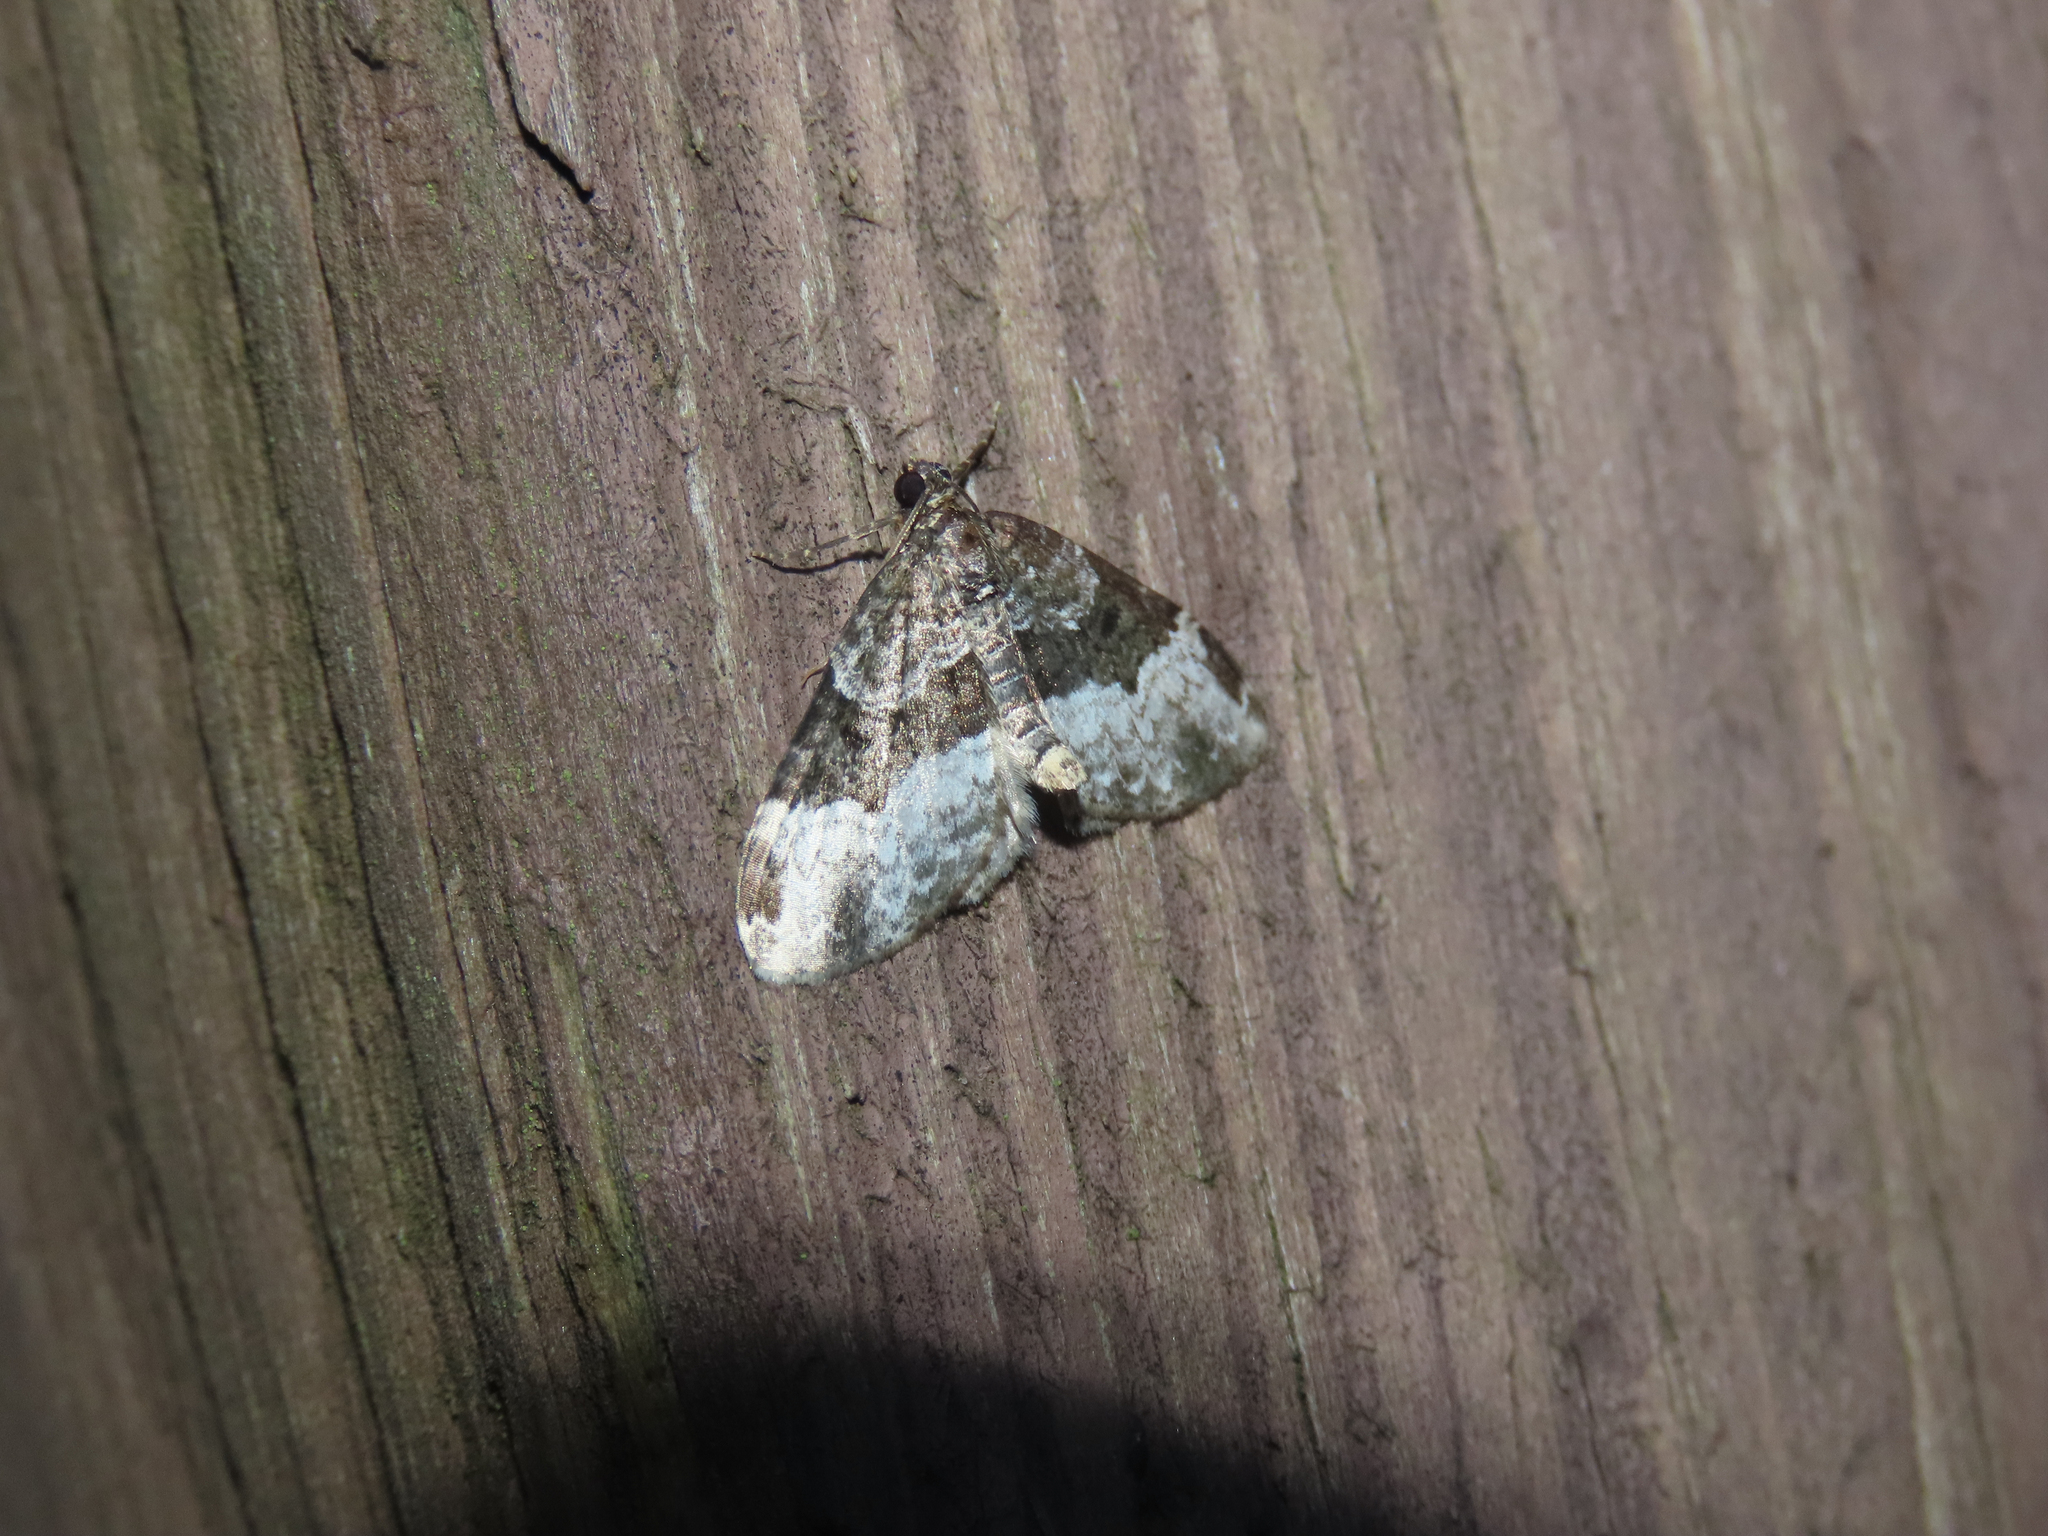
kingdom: Animalia
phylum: Arthropoda
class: Insecta
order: Lepidoptera
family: Geometridae
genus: Euphyia
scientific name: Euphyia intermediata
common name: Sharp-angled carpet
